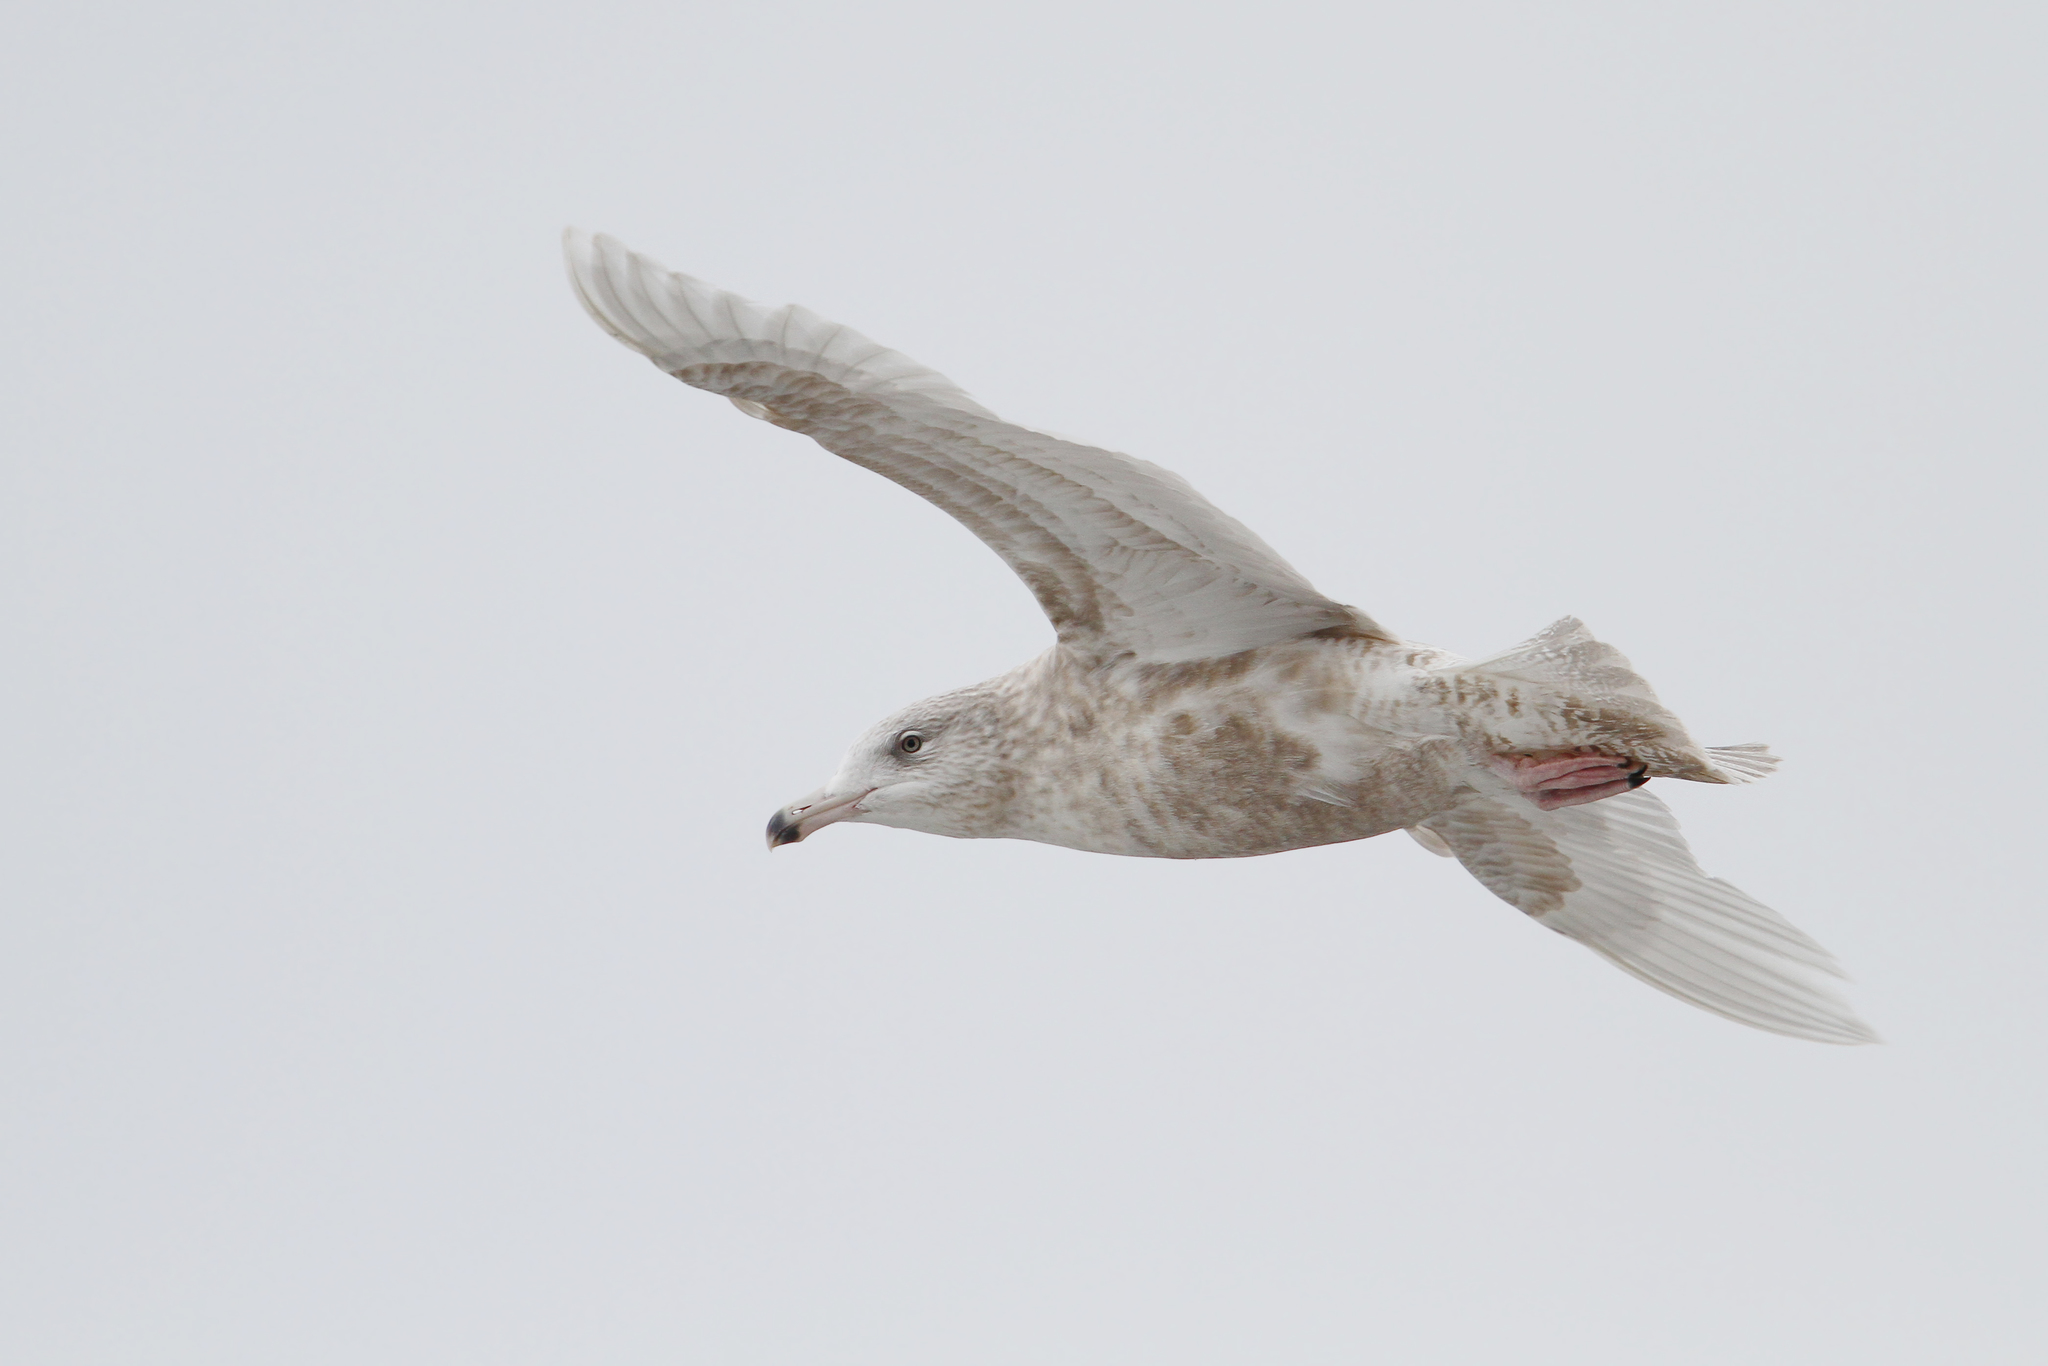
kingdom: Animalia
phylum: Chordata
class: Aves
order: Charadriiformes
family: Laridae
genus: Larus
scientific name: Larus hyperboreus
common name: Glaucous gull
